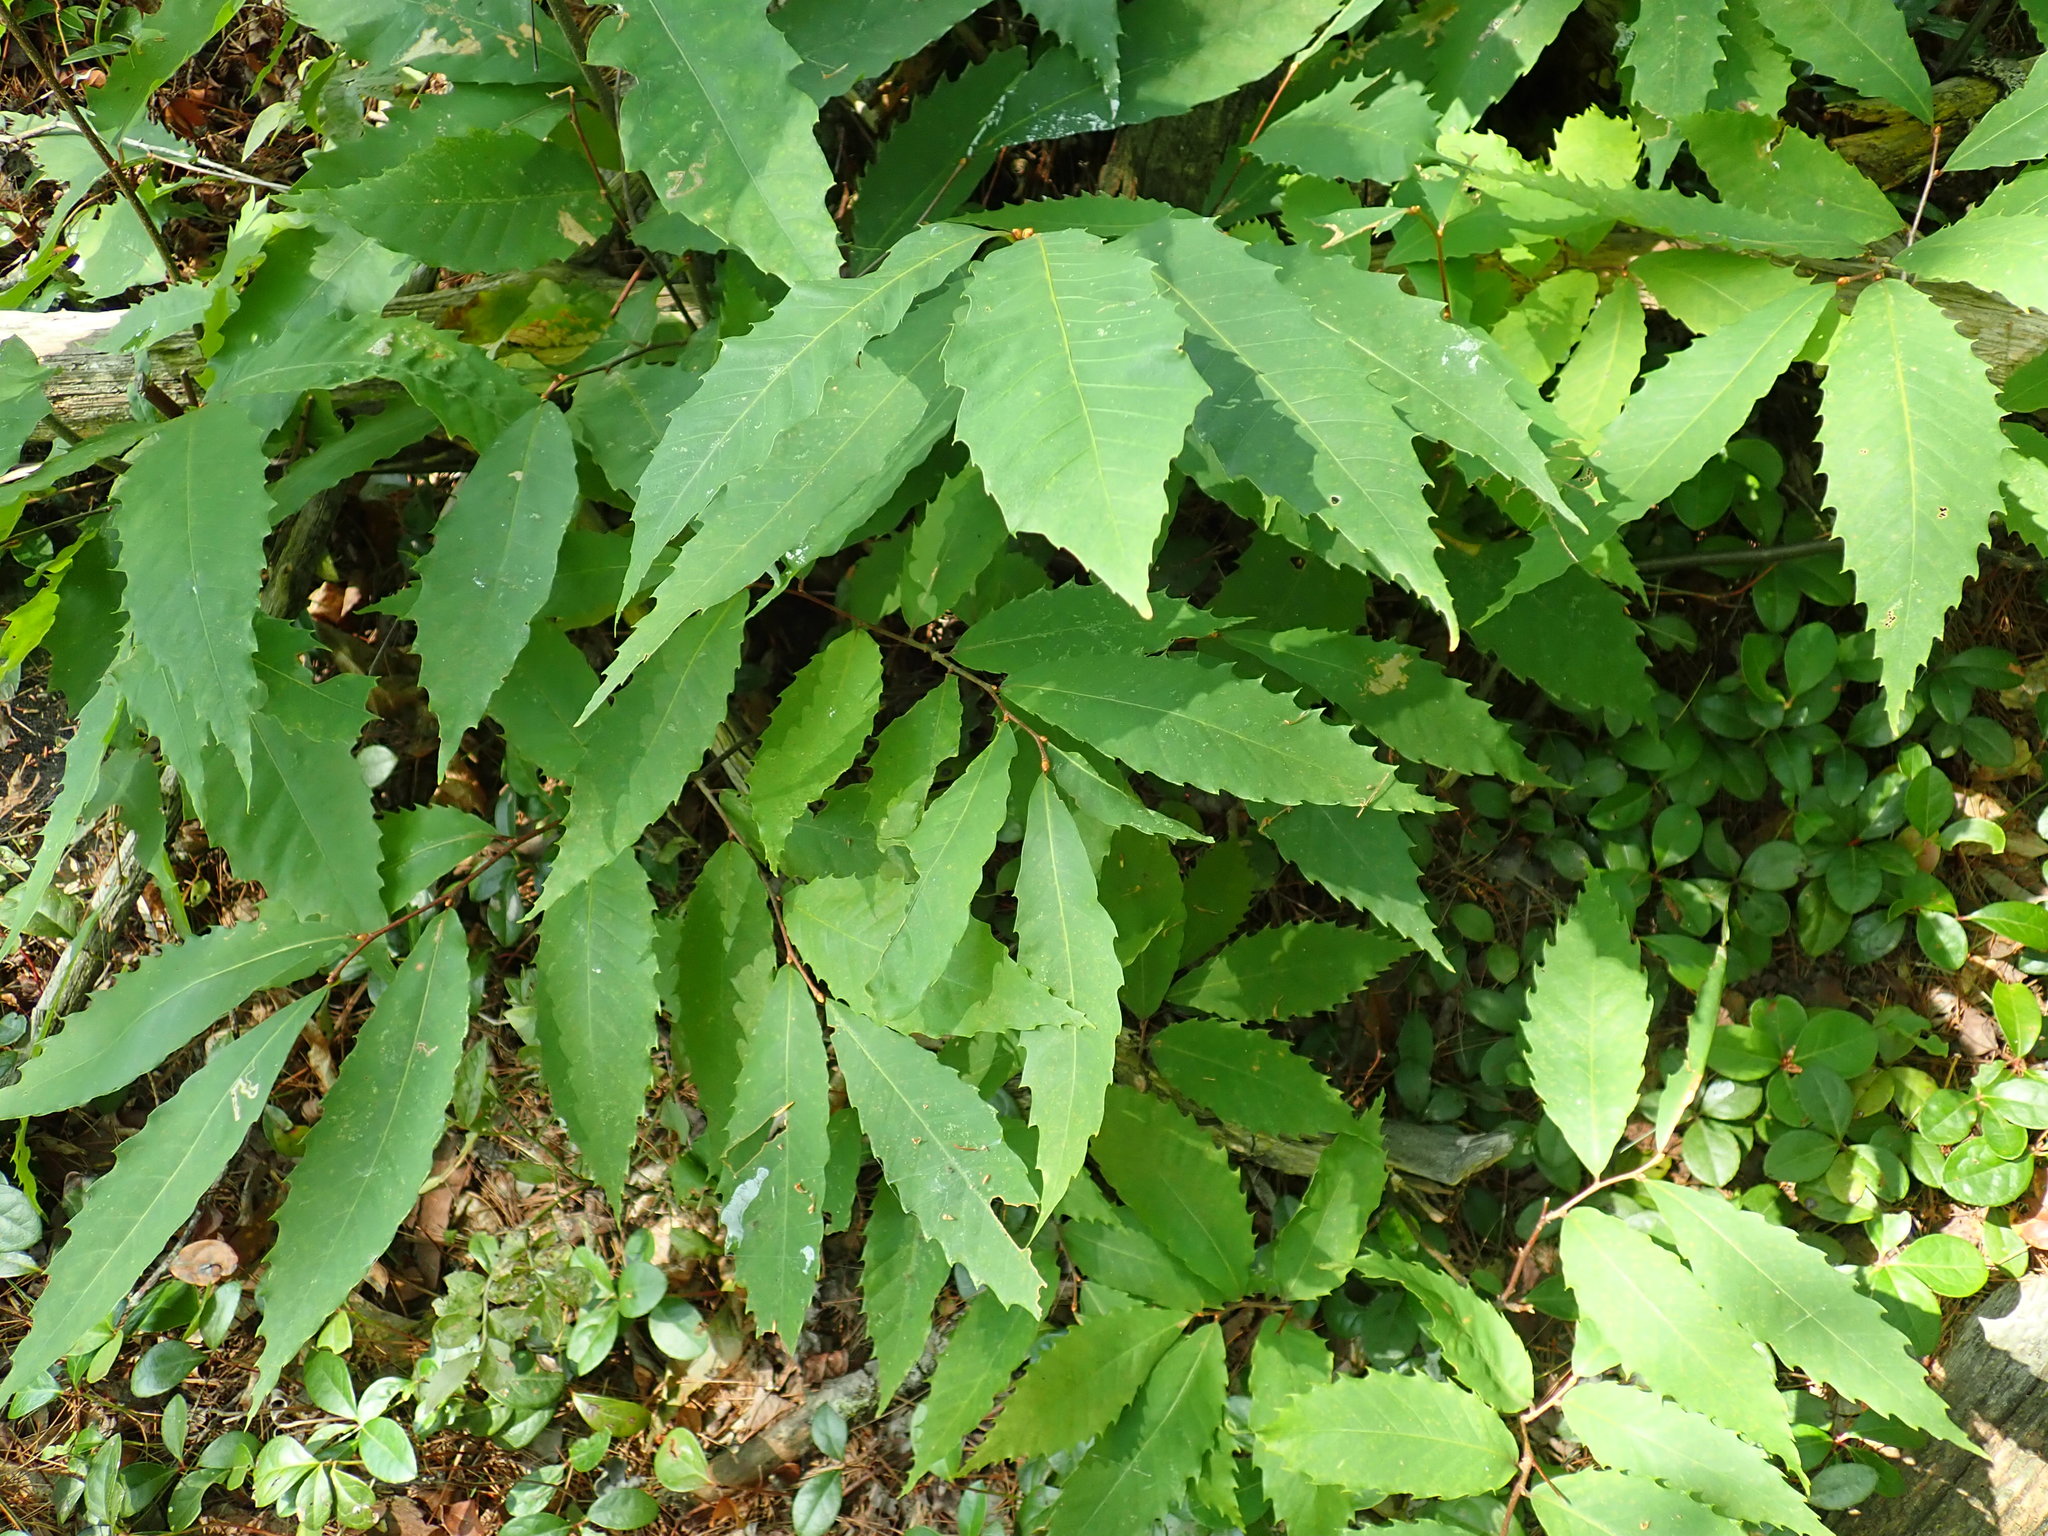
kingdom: Plantae
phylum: Tracheophyta
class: Magnoliopsida
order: Fagales
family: Fagaceae
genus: Castanea
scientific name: Castanea dentata
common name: American chestnut
